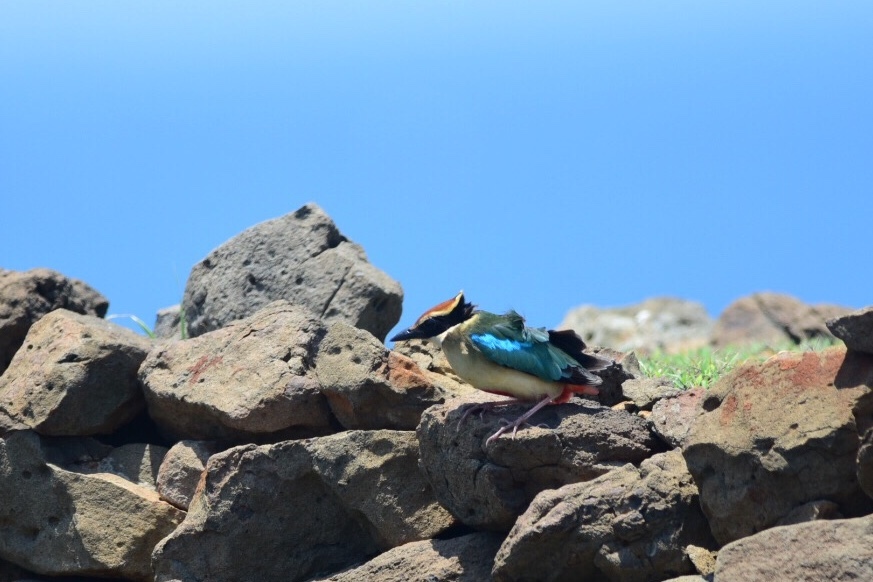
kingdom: Animalia
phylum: Chordata
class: Aves
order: Passeriformes
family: Pittidae
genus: Pitta
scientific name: Pitta nympha
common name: Fairy pitta
